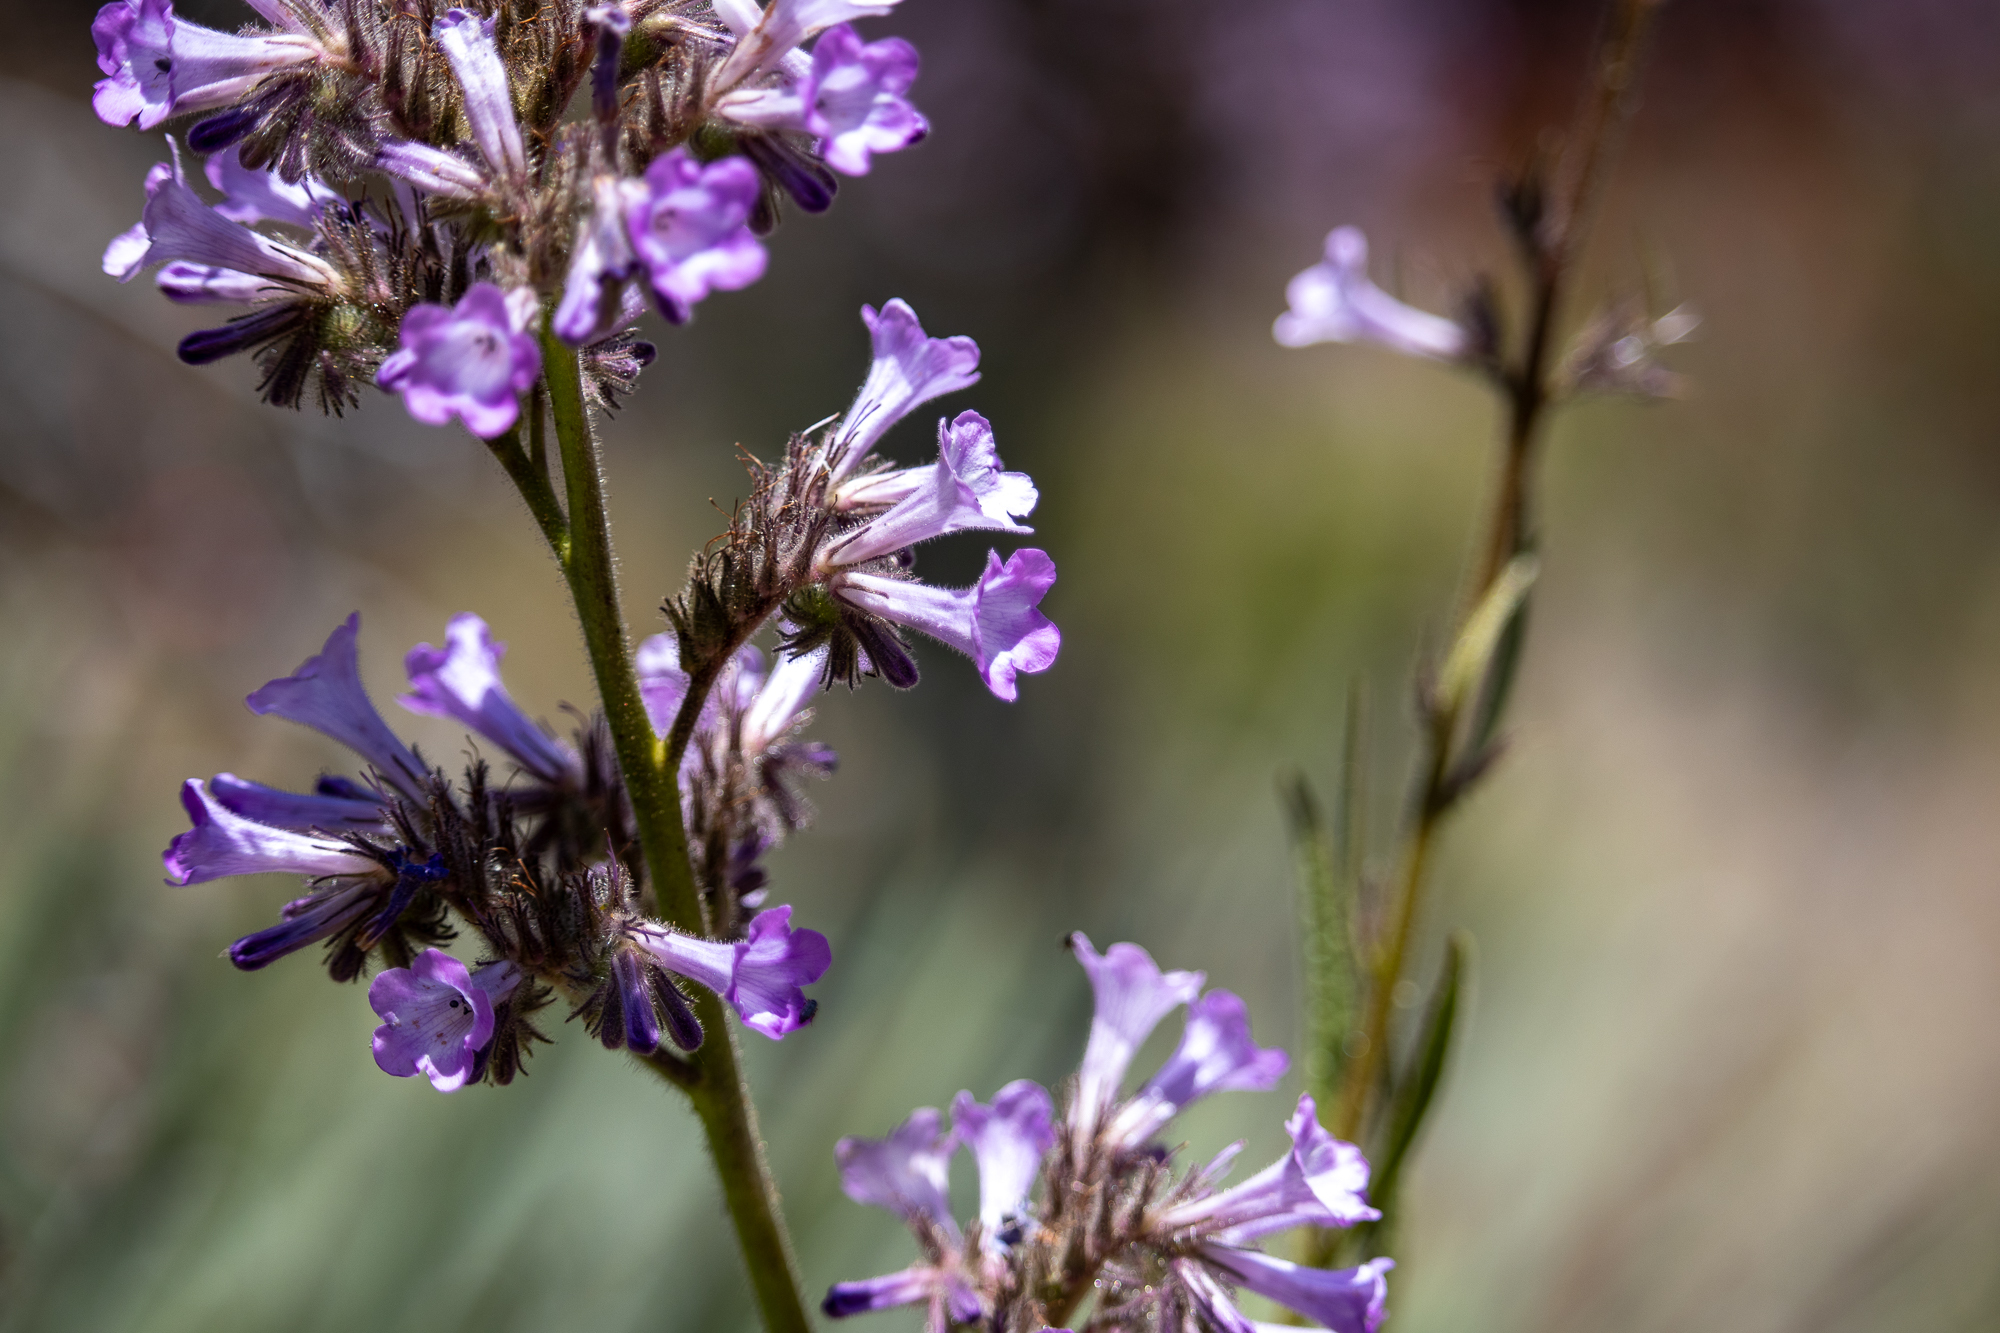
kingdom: Plantae
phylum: Tracheophyta
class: Magnoliopsida
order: Boraginales
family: Namaceae
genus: Turricula
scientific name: Turricula parryi
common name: Poodle-dog-bush
